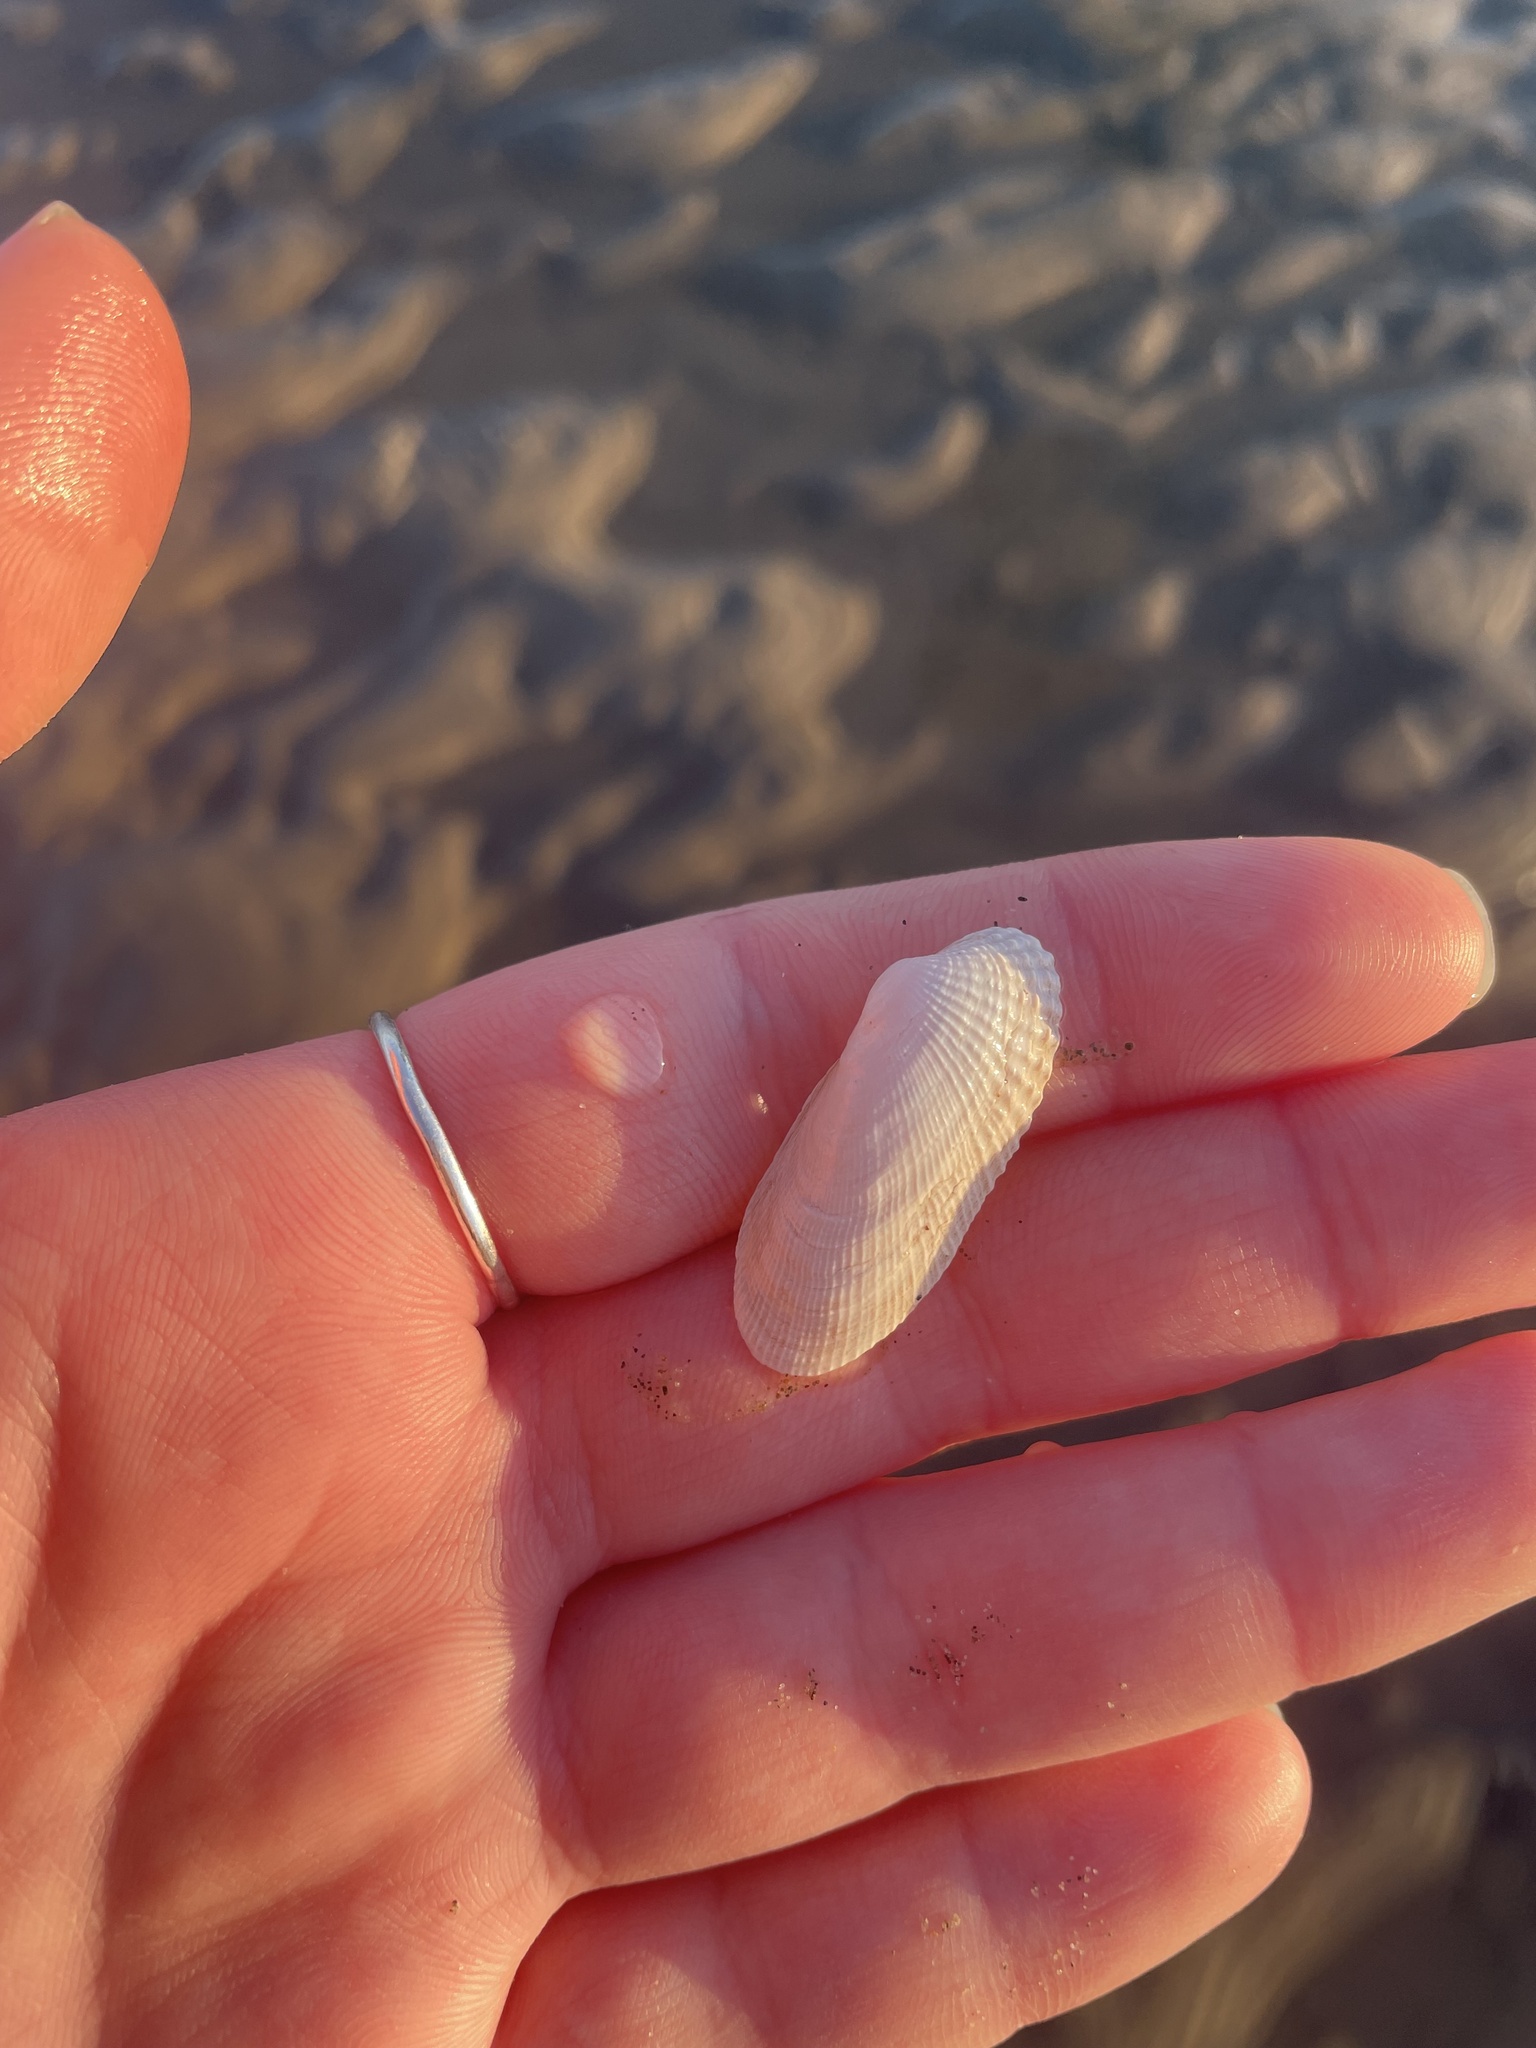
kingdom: Animalia
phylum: Mollusca
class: Bivalvia
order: Venerida
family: Veneridae
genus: Petricolaria
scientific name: Petricolaria pholadiformis
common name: American piddock
